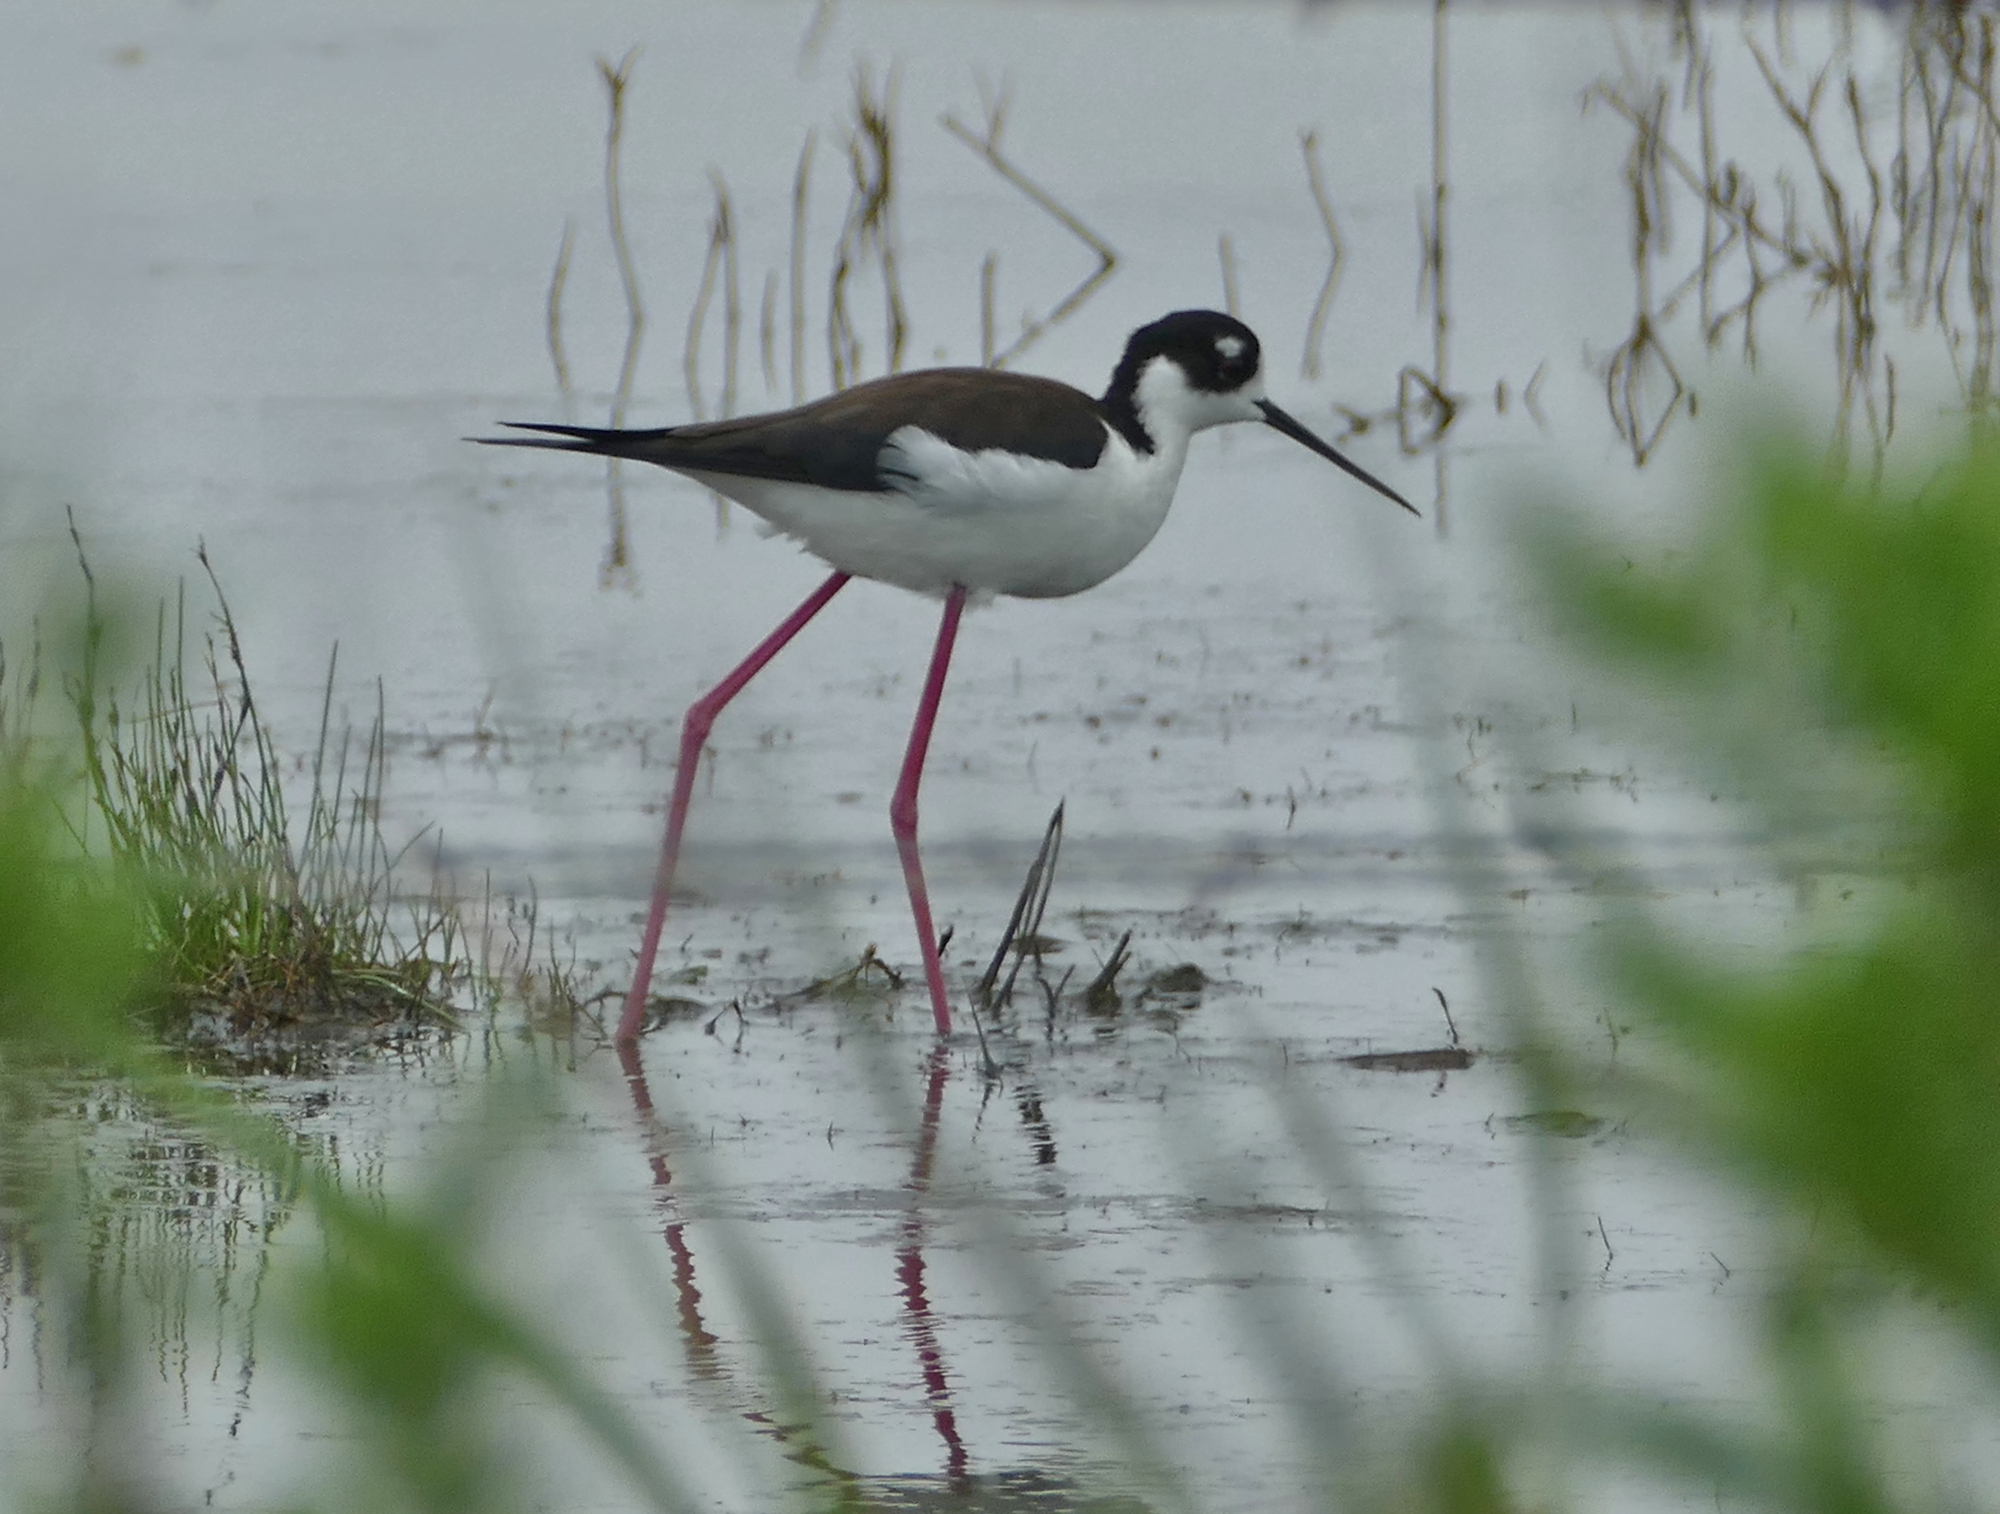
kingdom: Animalia
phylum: Chordata
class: Aves
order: Charadriiformes
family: Recurvirostridae
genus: Himantopus
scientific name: Himantopus mexicanus
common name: Black-necked stilt
